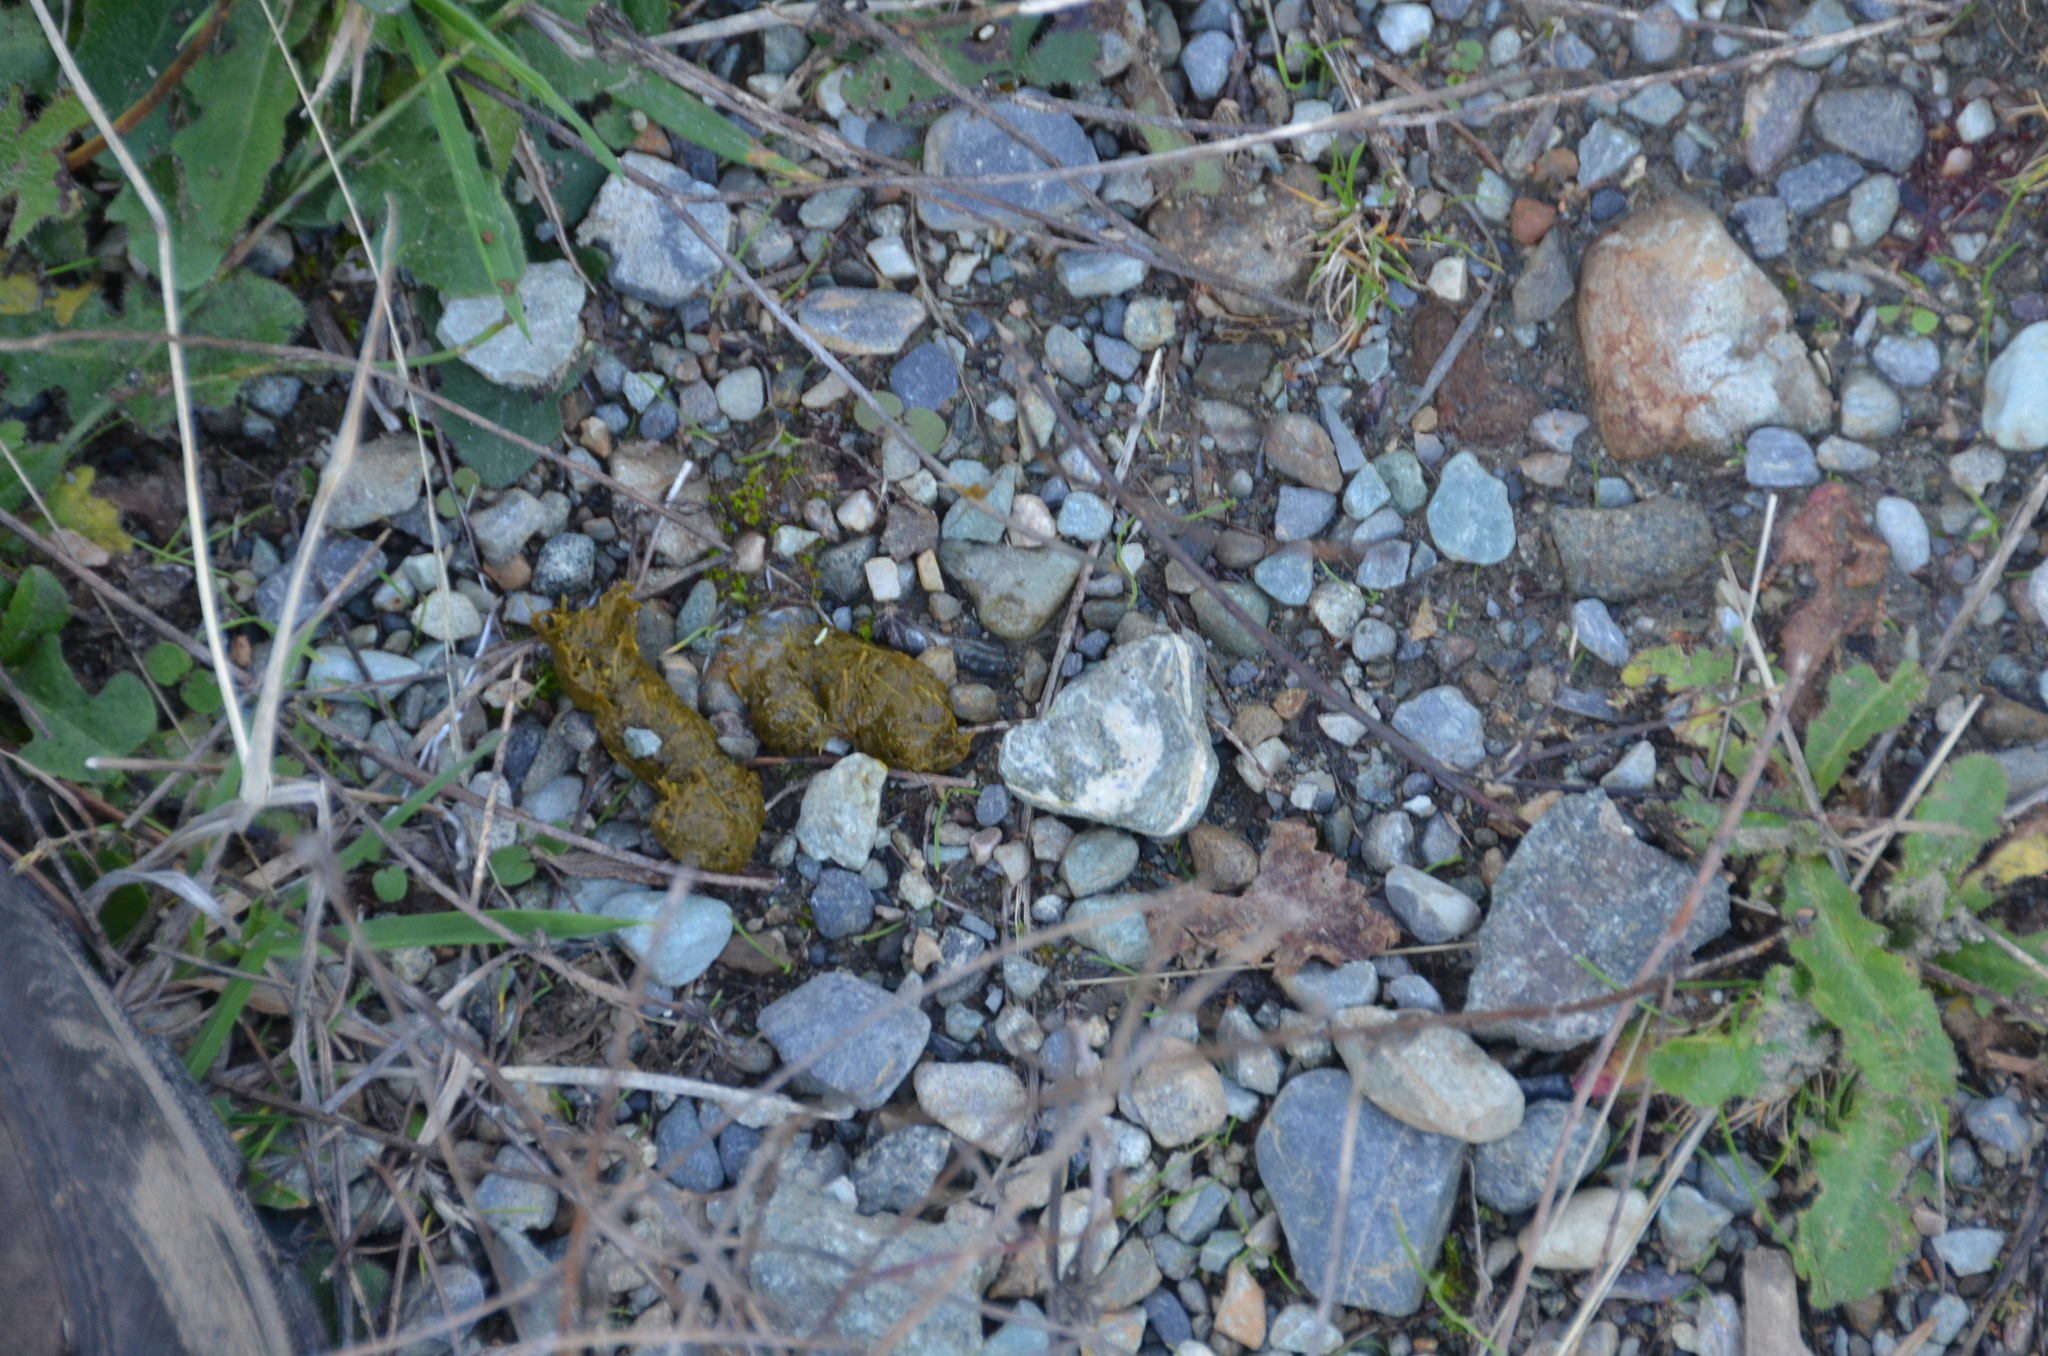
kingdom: Animalia
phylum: Chordata
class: Aves
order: Galliformes
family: Phasianidae
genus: Dendragapus
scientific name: Dendragapus fuliginosus
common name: Sooty grouse
